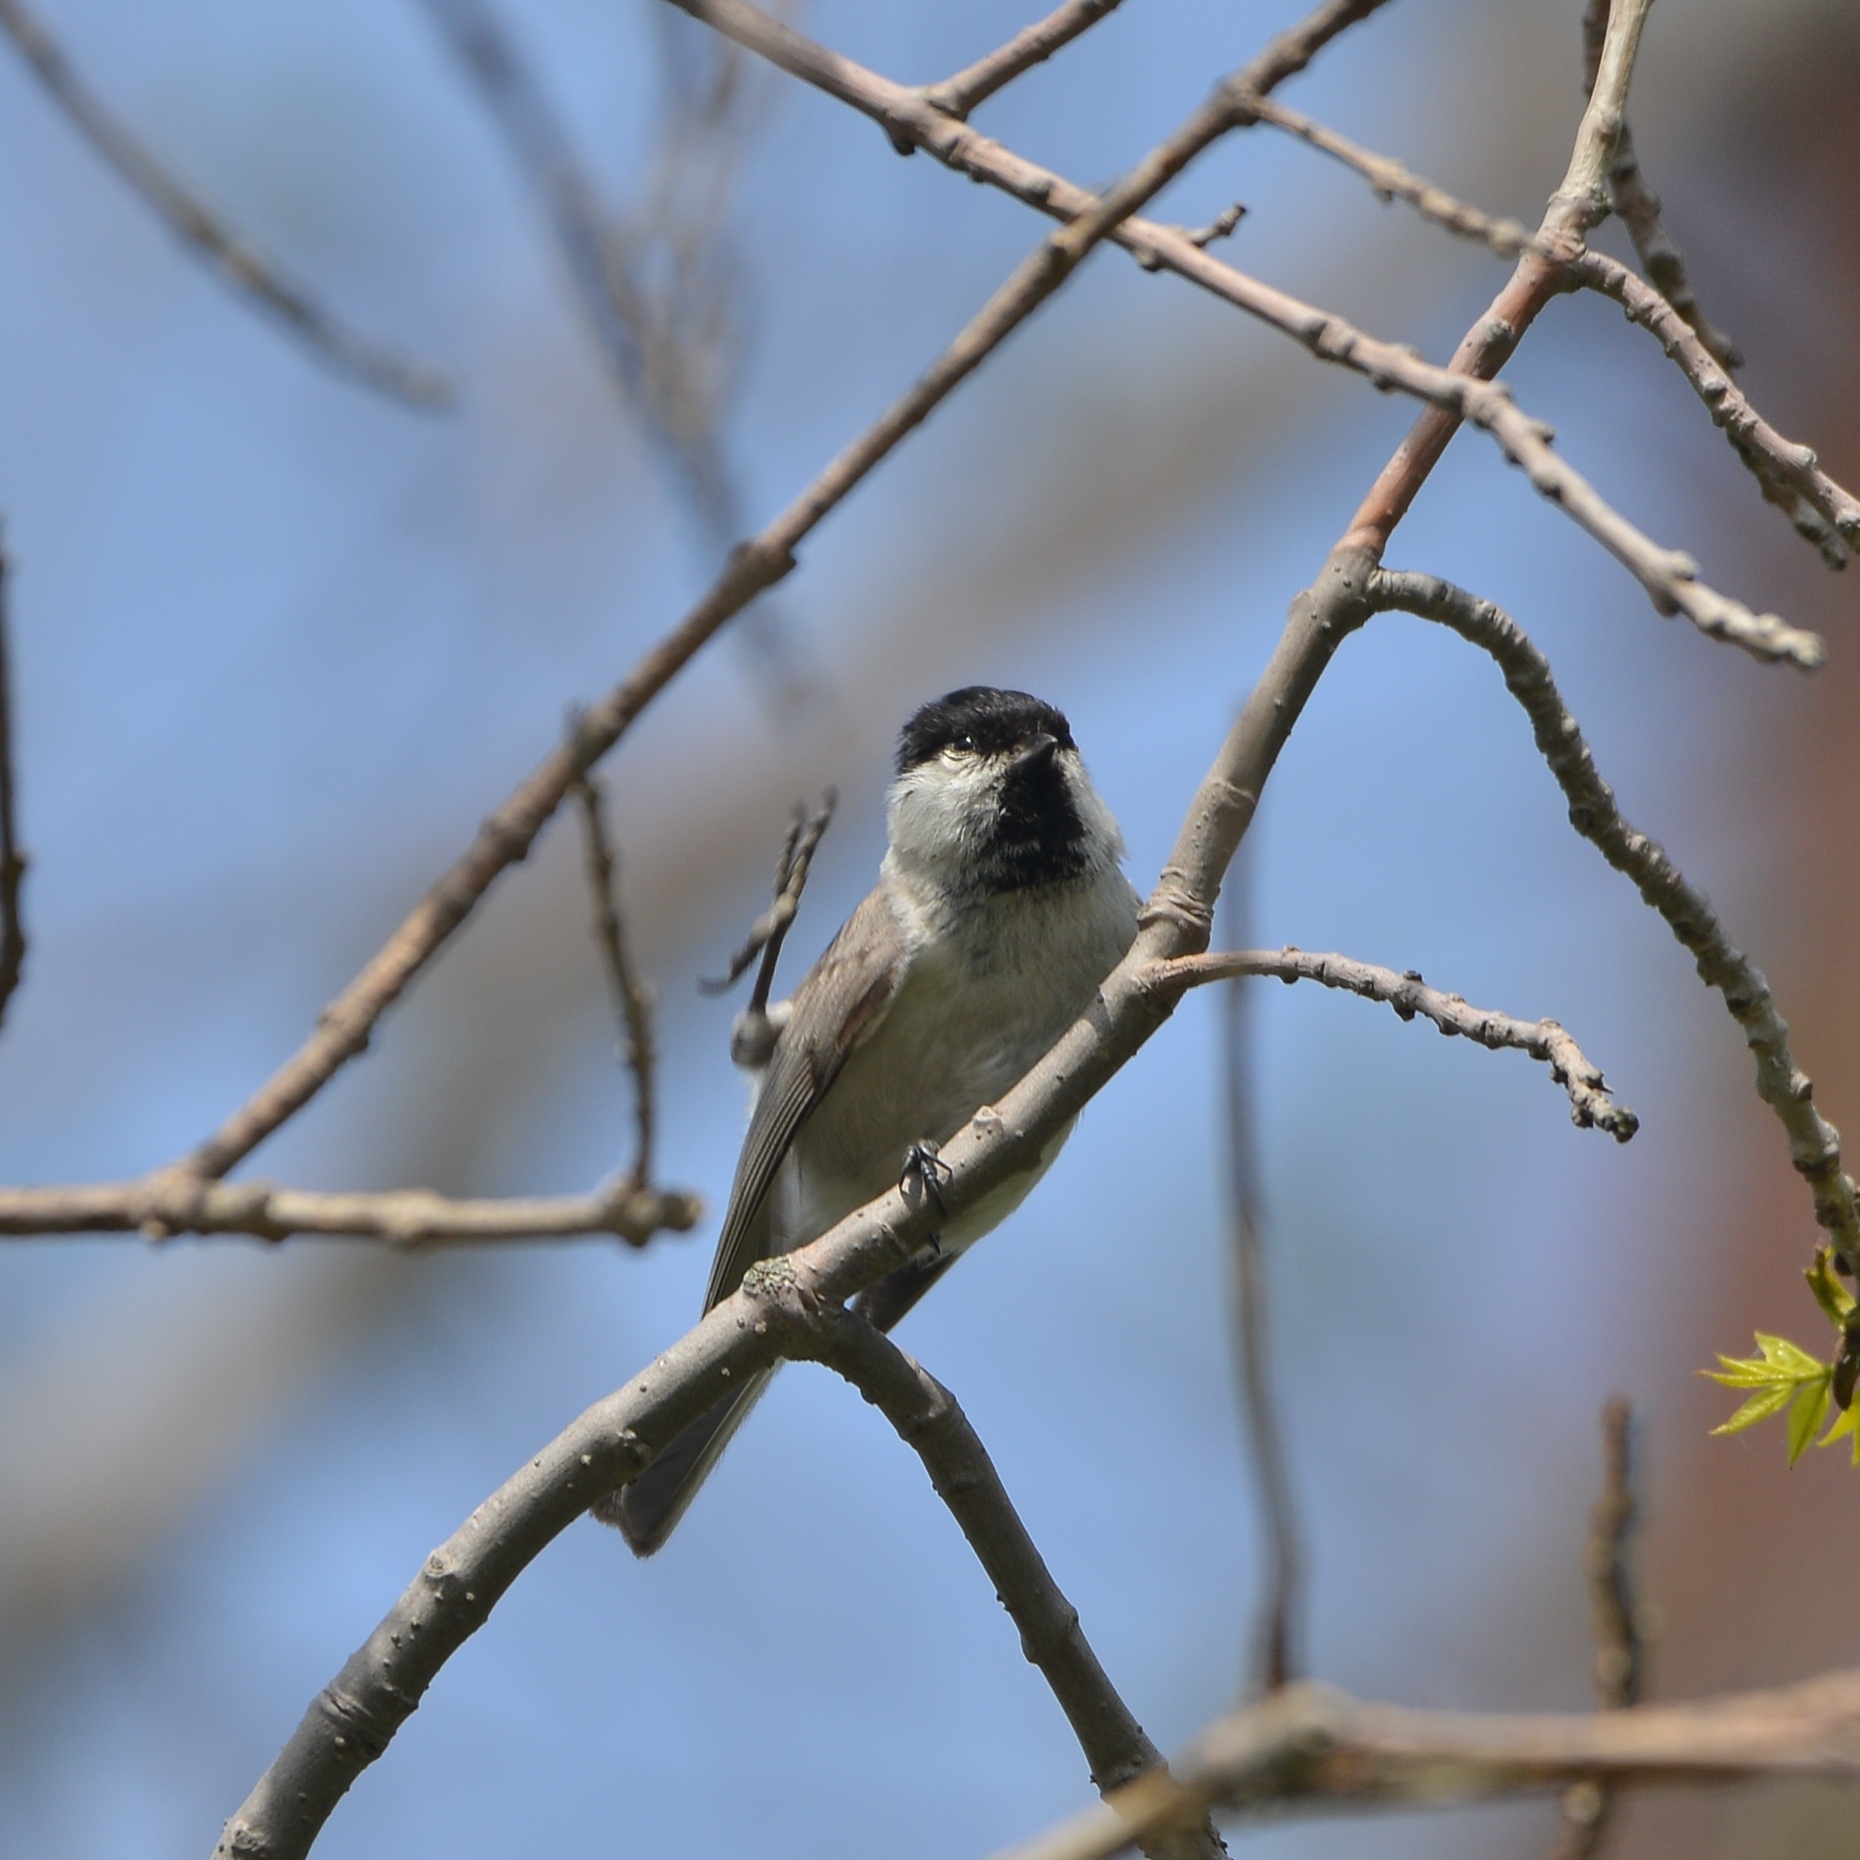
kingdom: Animalia
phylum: Chordata
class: Aves
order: Passeriformes
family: Paridae
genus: Poecile
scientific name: Poecile palustris
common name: Marsh tit
